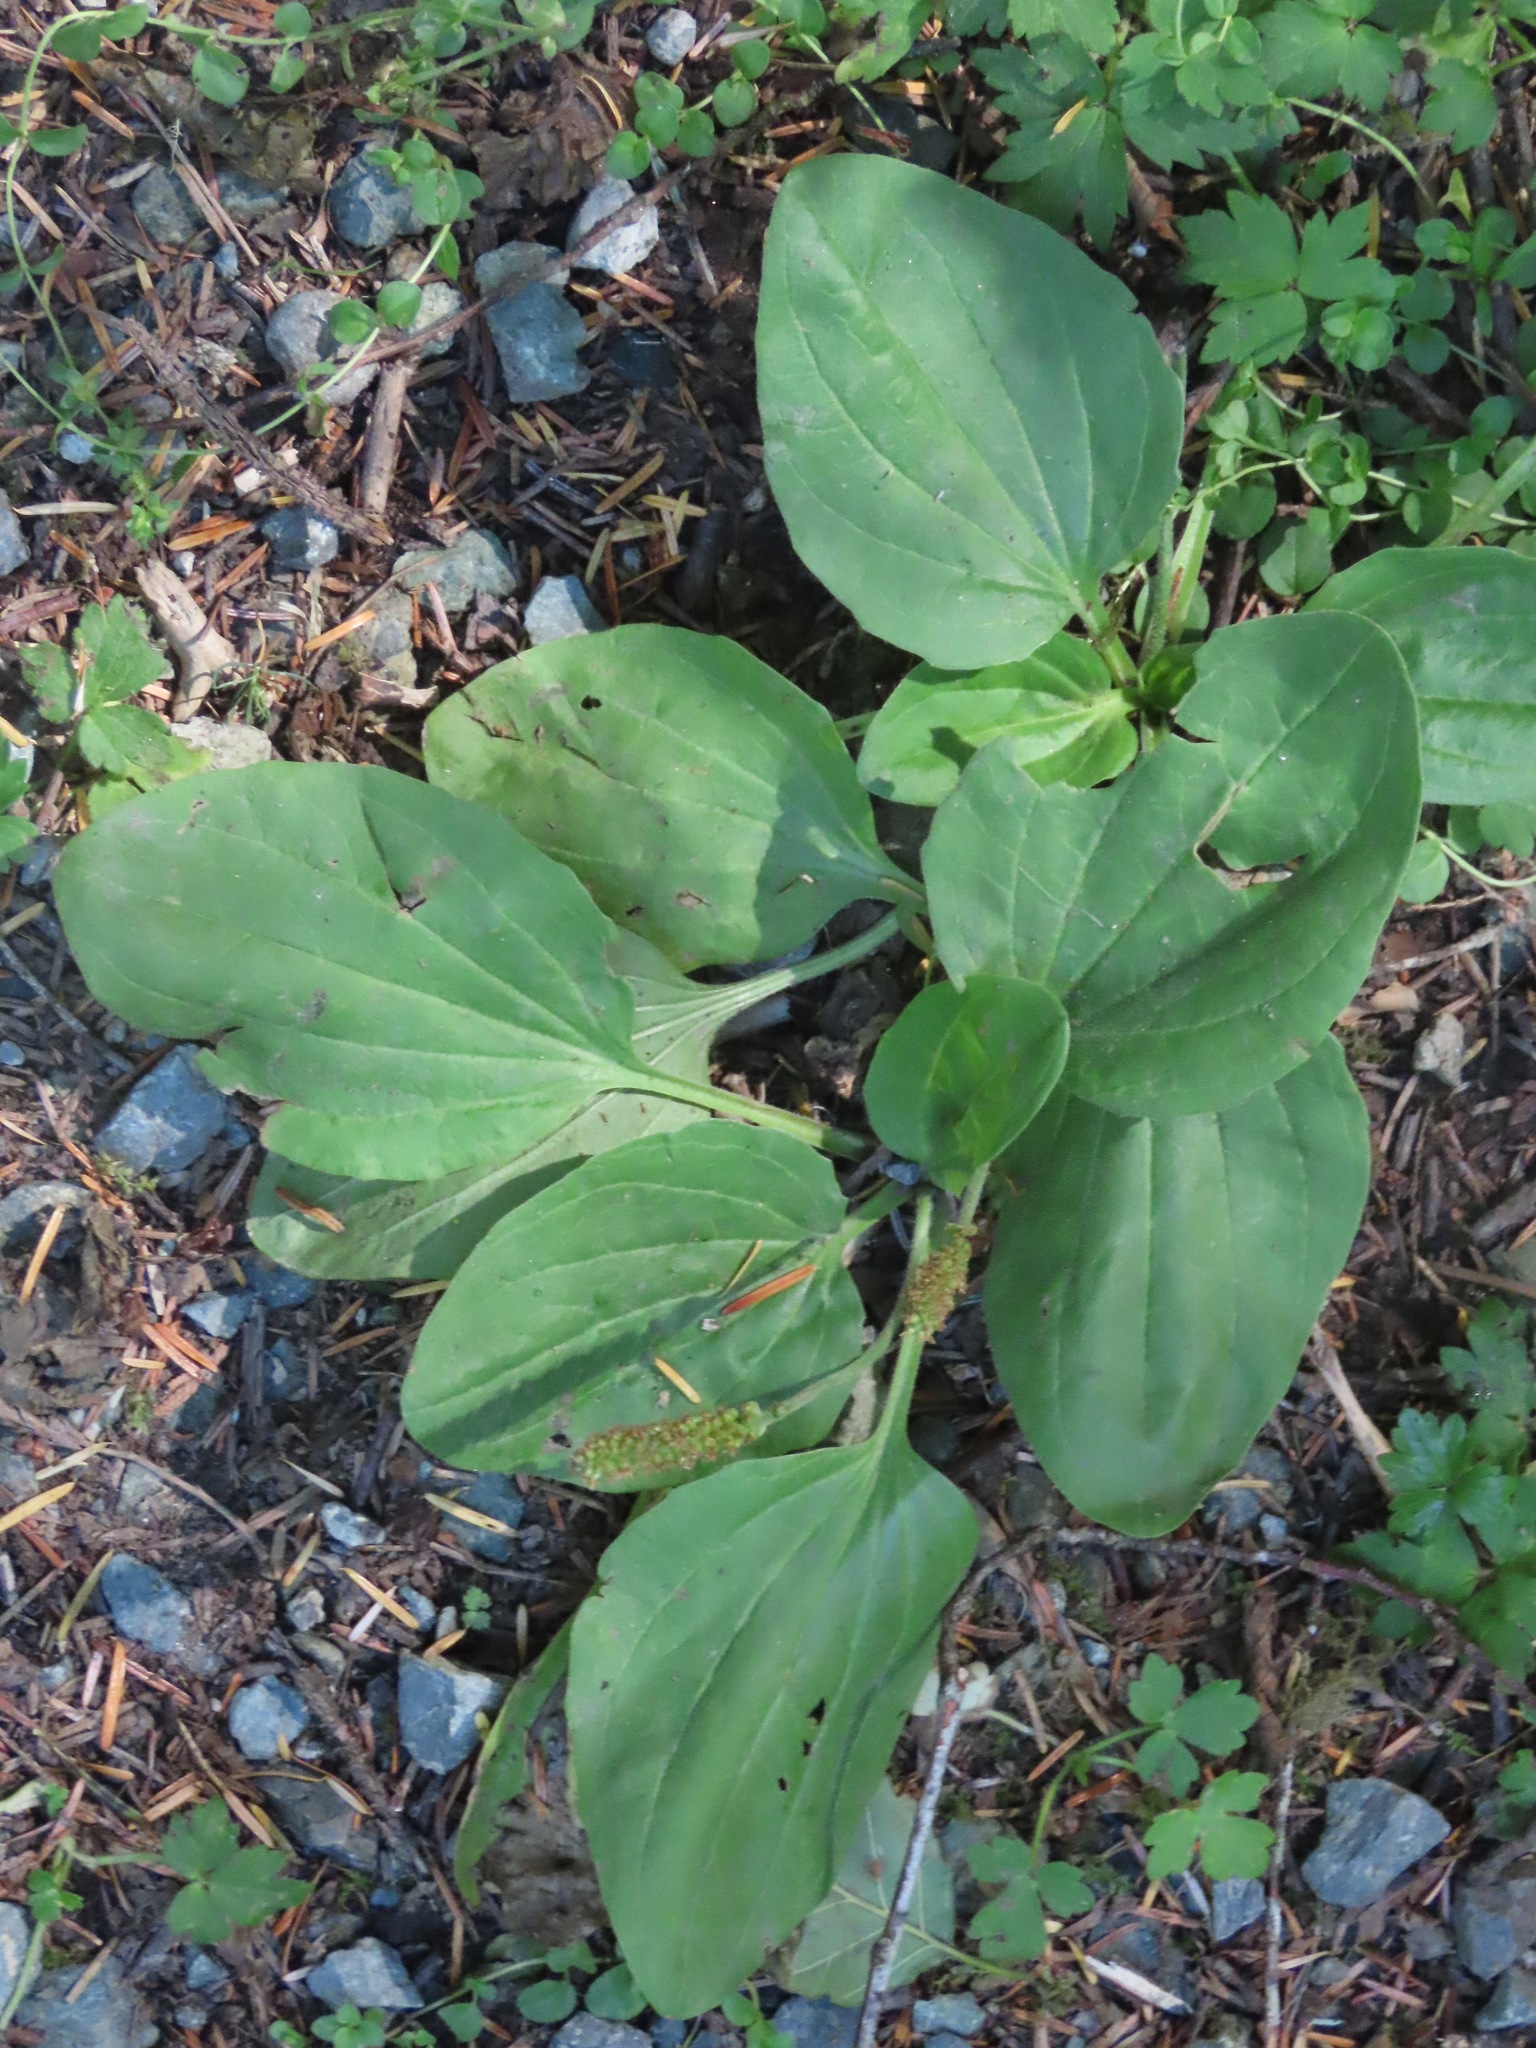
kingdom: Plantae
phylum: Tracheophyta
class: Magnoliopsida
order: Lamiales
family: Plantaginaceae
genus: Plantago
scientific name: Plantago major
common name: Common plantain
